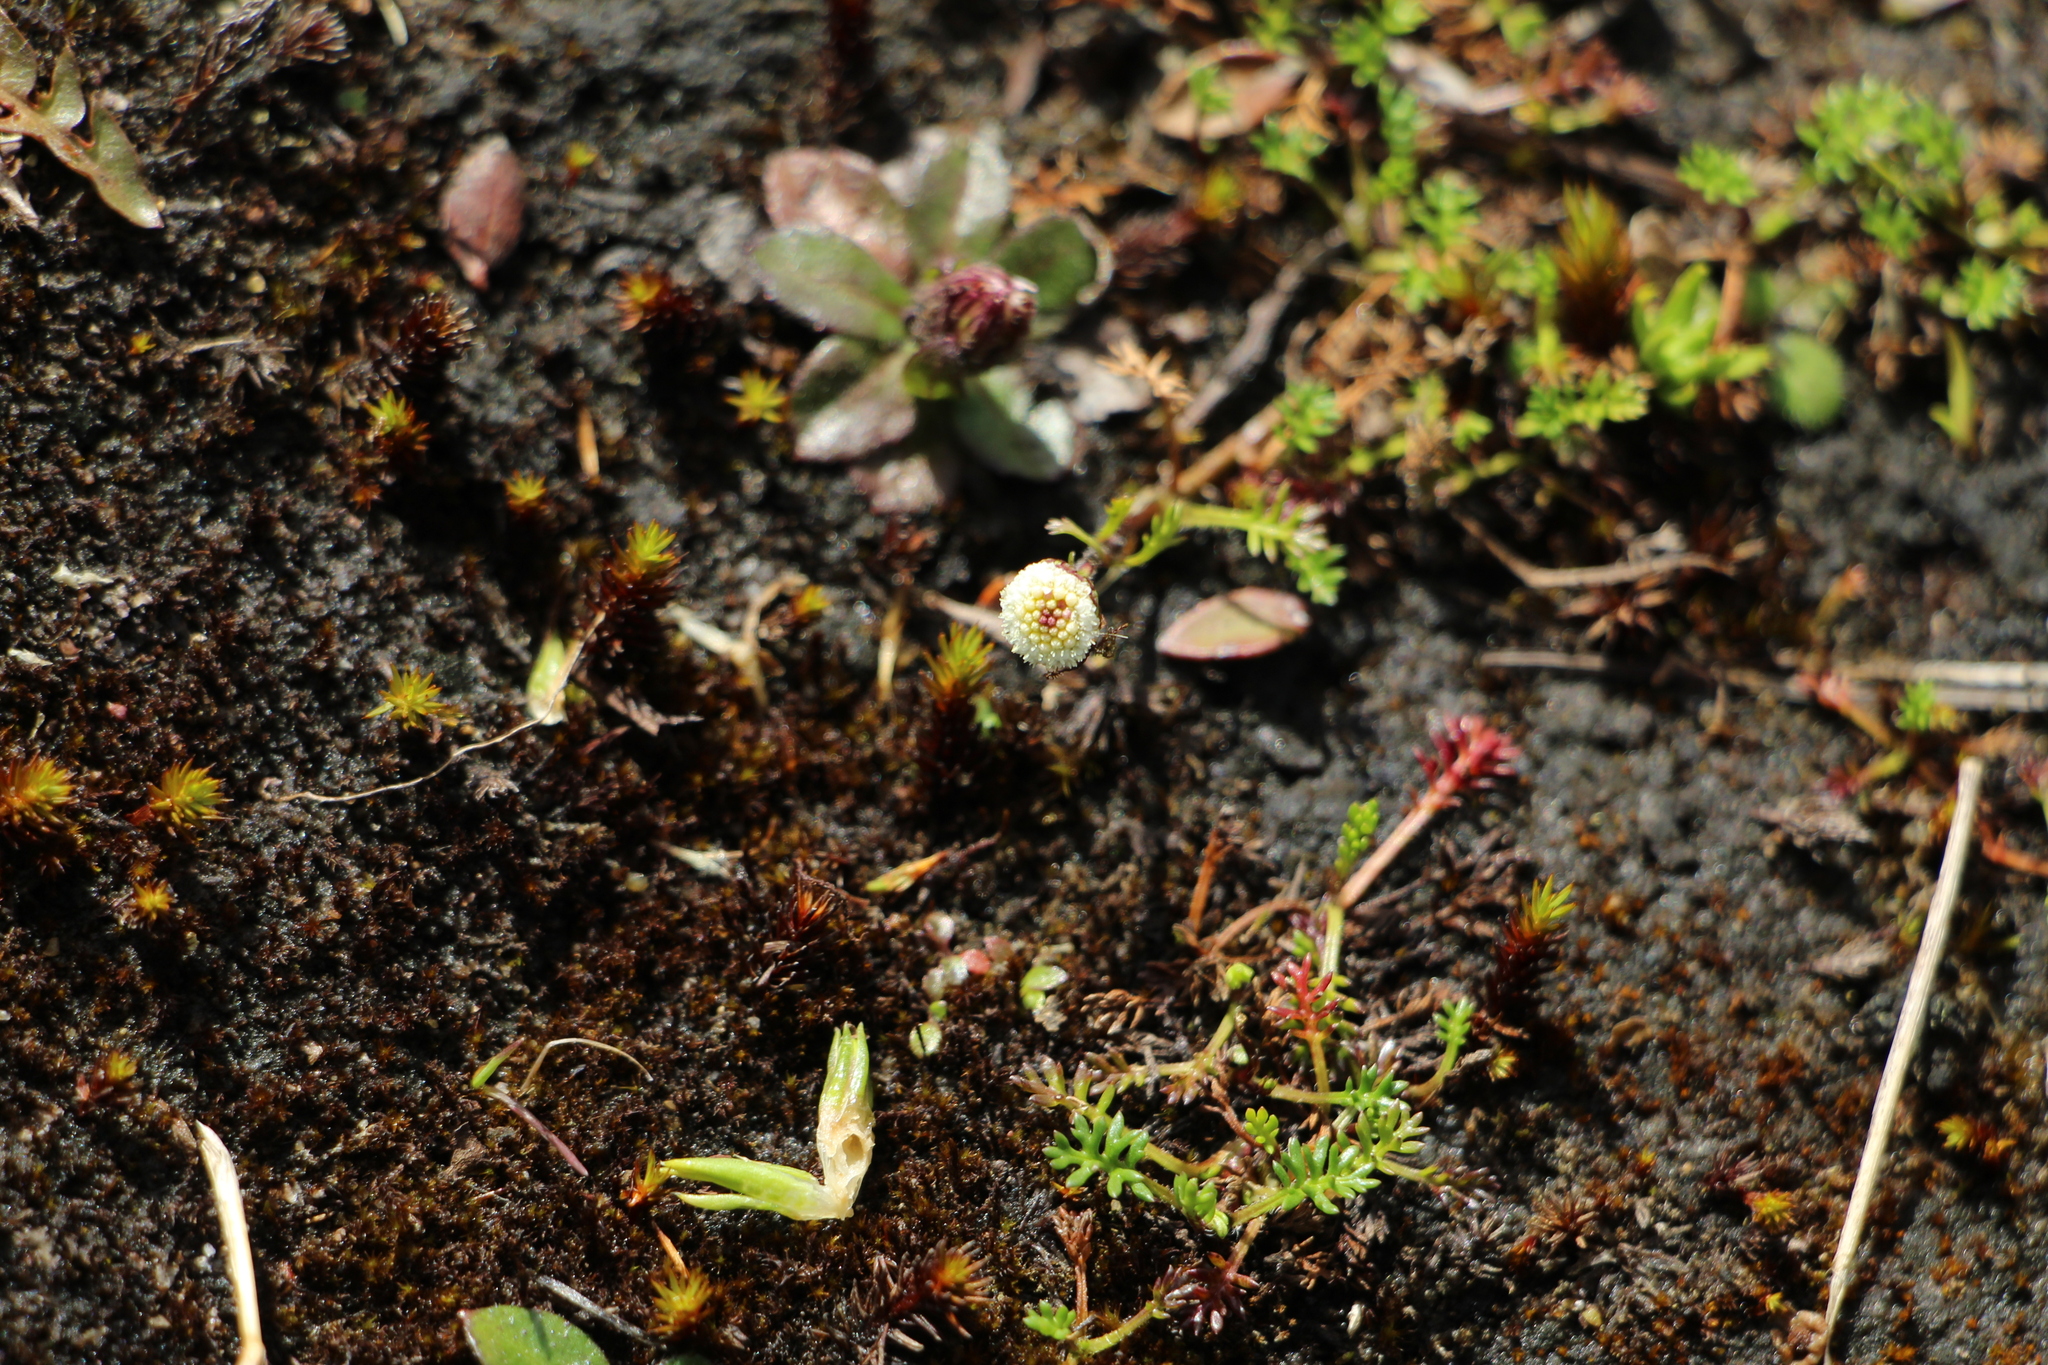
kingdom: Plantae
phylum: Tracheophyta
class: Magnoliopsida
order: Asterales
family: Asteraceae
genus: Plagiocheilus
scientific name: Plagiocheilus soliviformis
